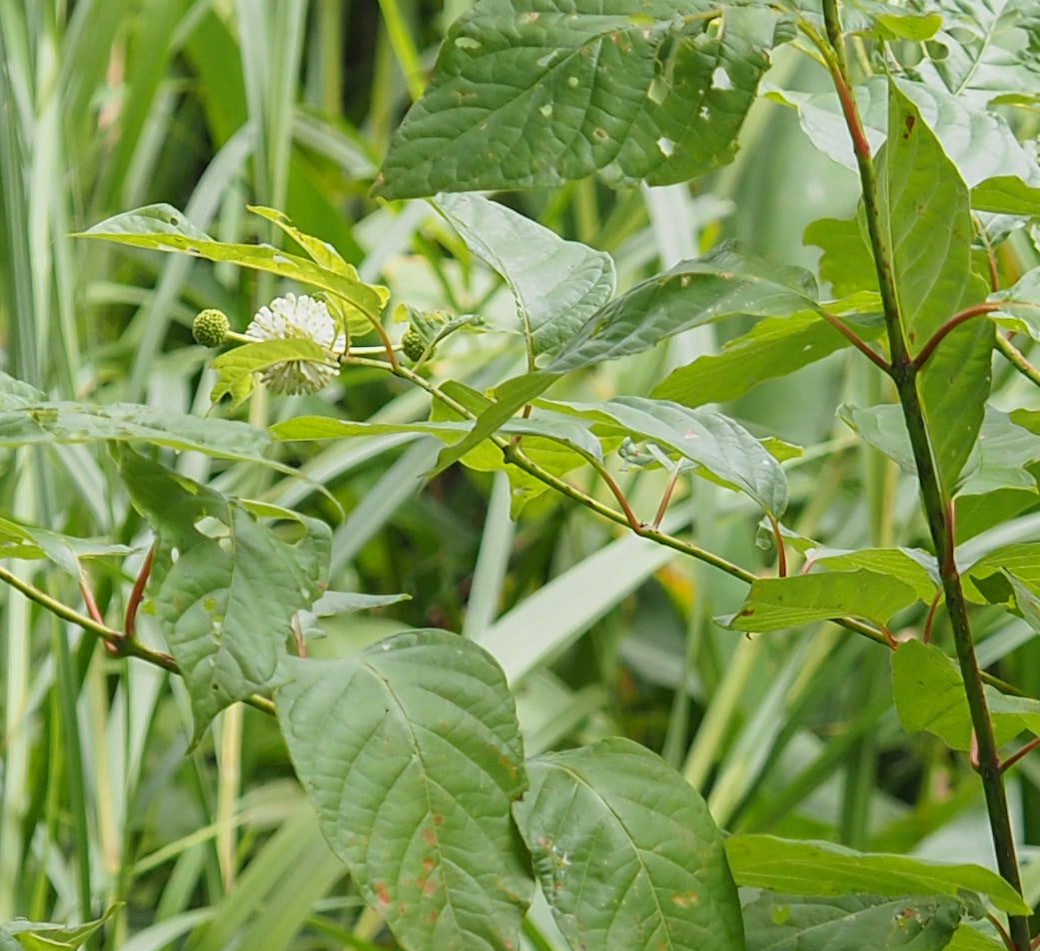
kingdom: Plantae
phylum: Tracheophyta
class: Magnoliopsida
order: Gentianales
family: Rubiaceae
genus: Cephalanthus
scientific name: Cephalanthus occidentalis
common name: Button-willow
